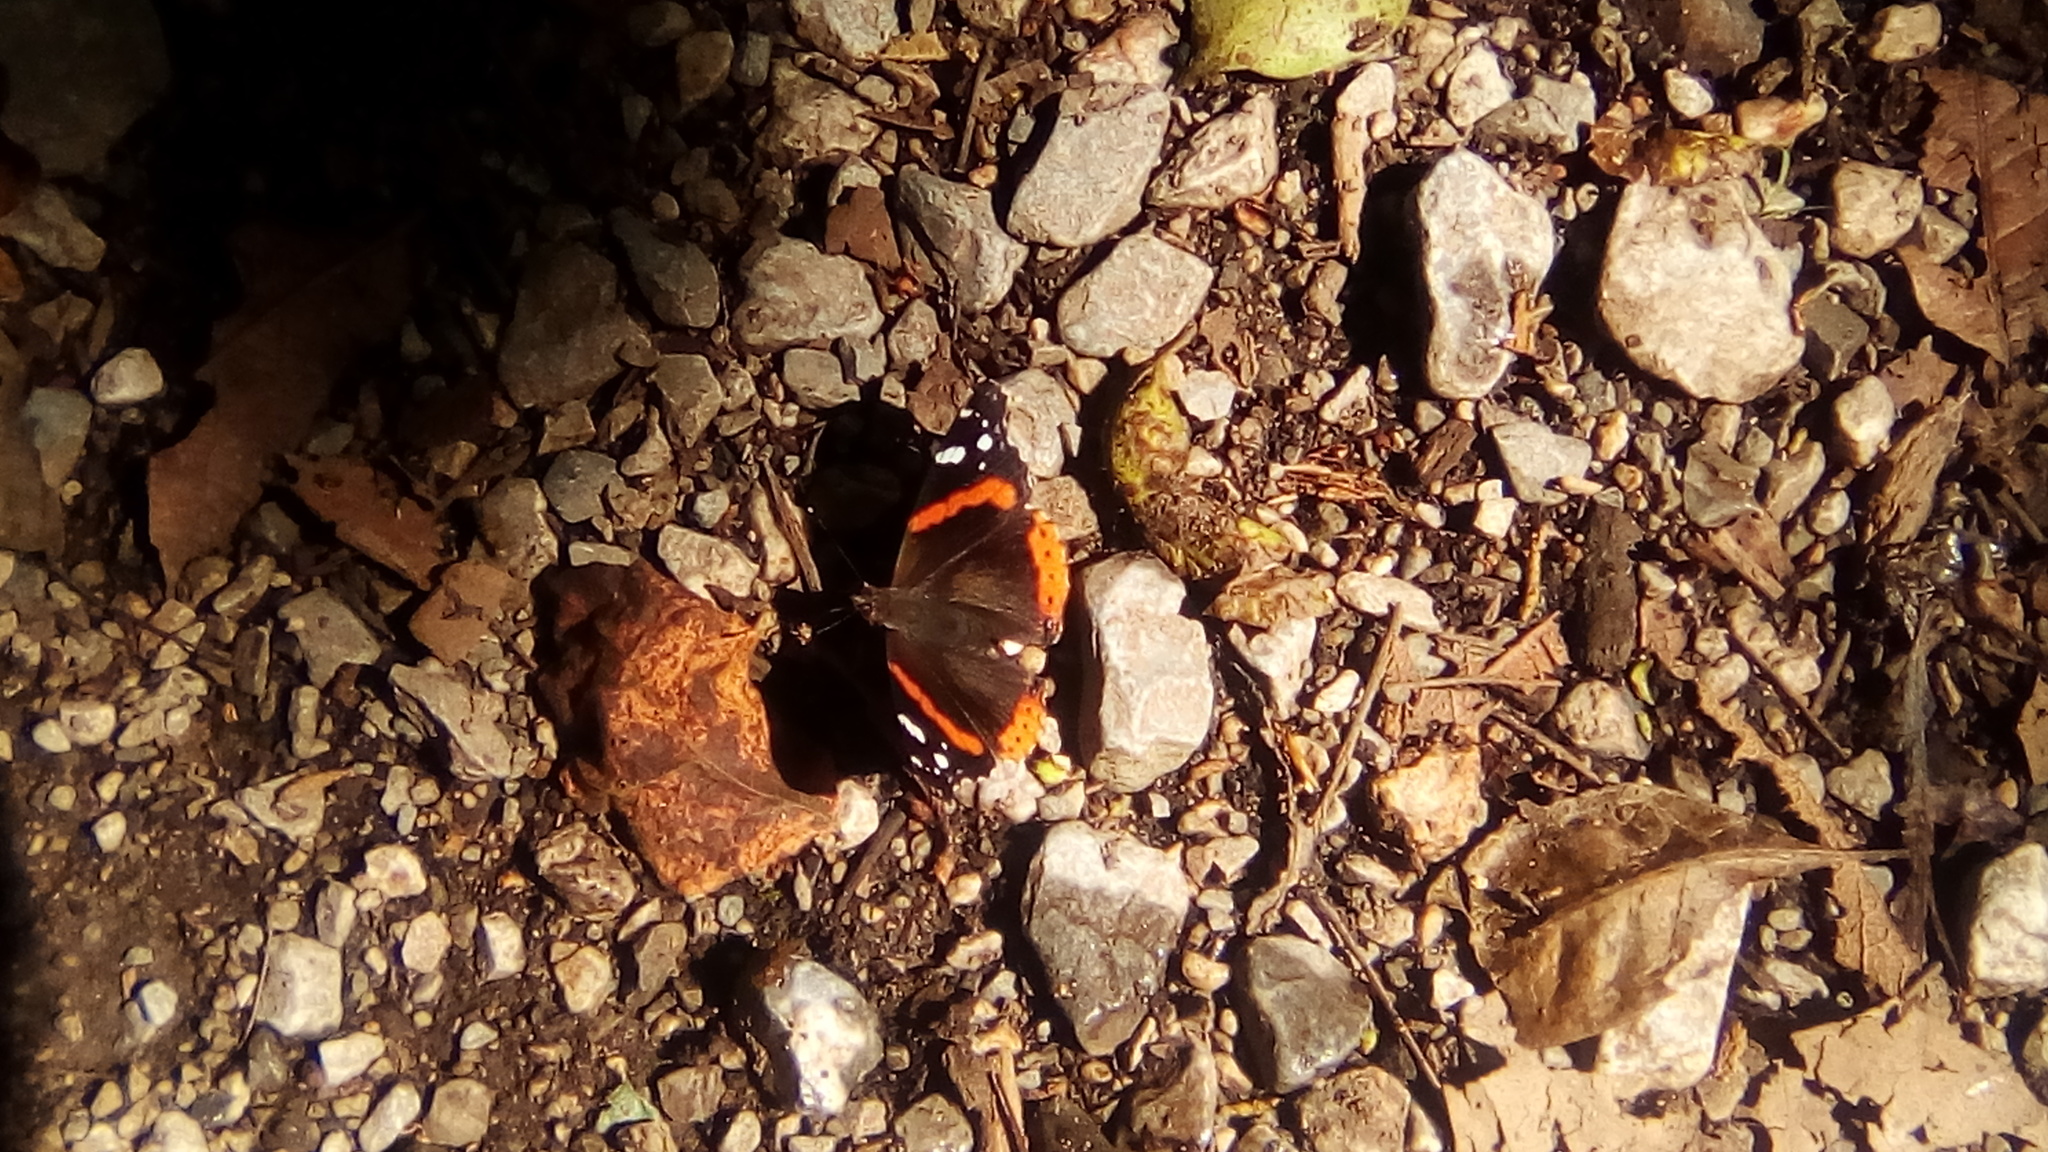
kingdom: Animalia
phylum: Arthropoda
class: Insecta
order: Lepidoptera
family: Nymphalidae
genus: Vanessa
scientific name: Vanessa atalanta
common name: Red admiral
